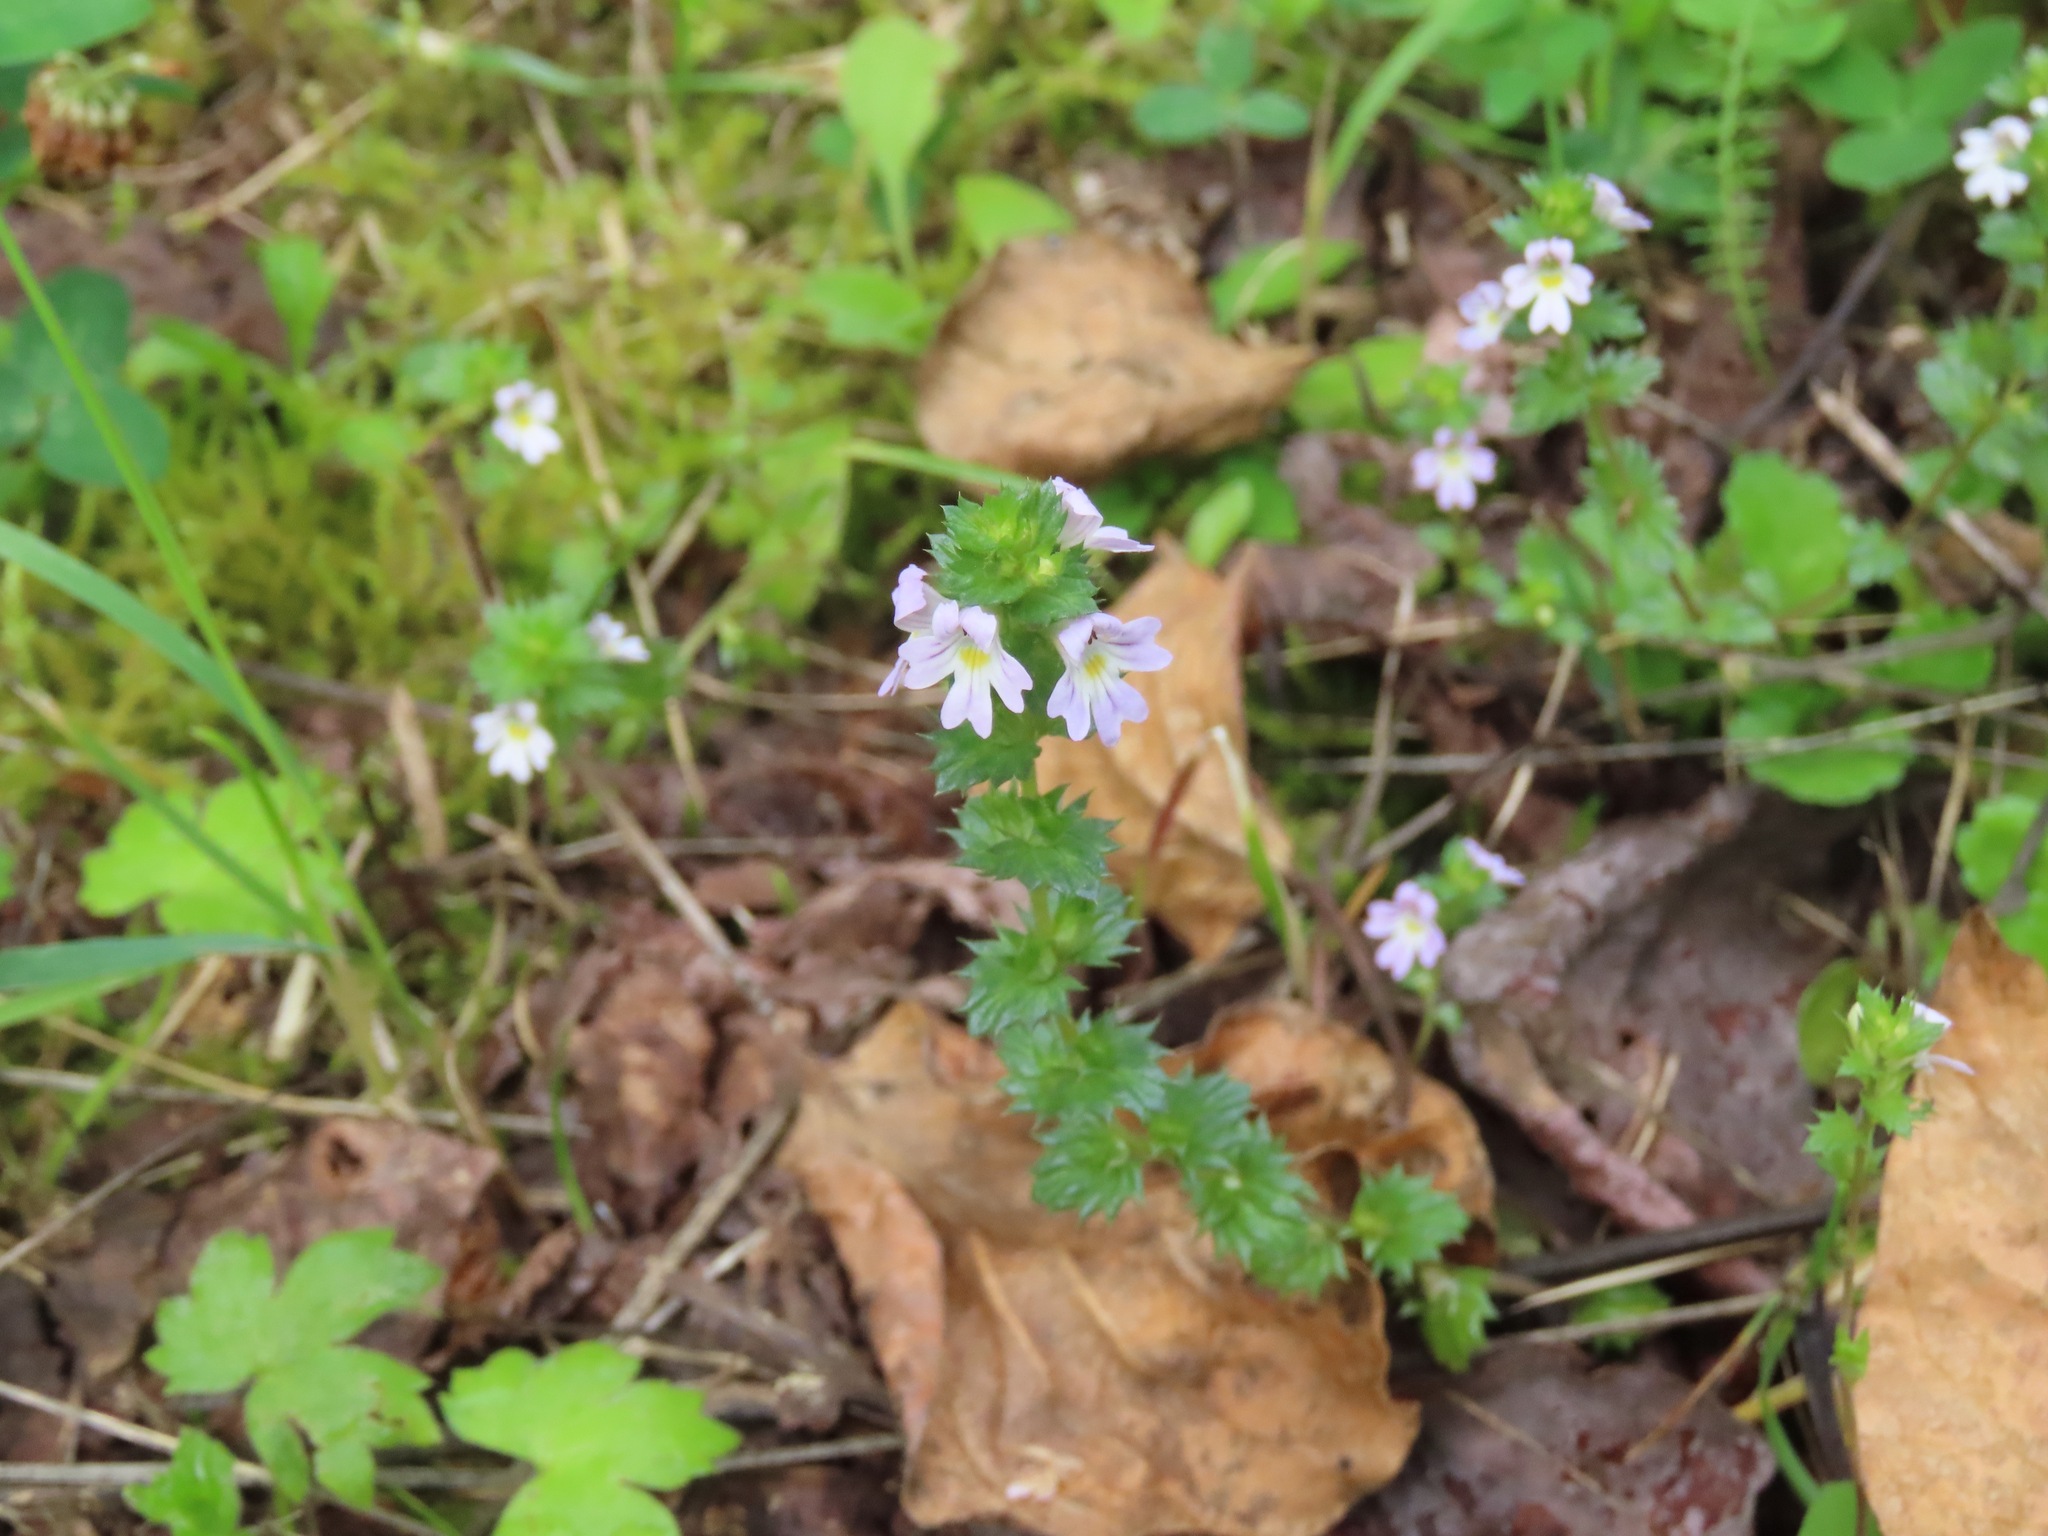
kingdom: Plantae
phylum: Tracheophyta
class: Magnoliopsida
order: Lamiales
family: Orobanchaceae
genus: Euphrasia
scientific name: Euphrasia nemorosa
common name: Common eyebright
